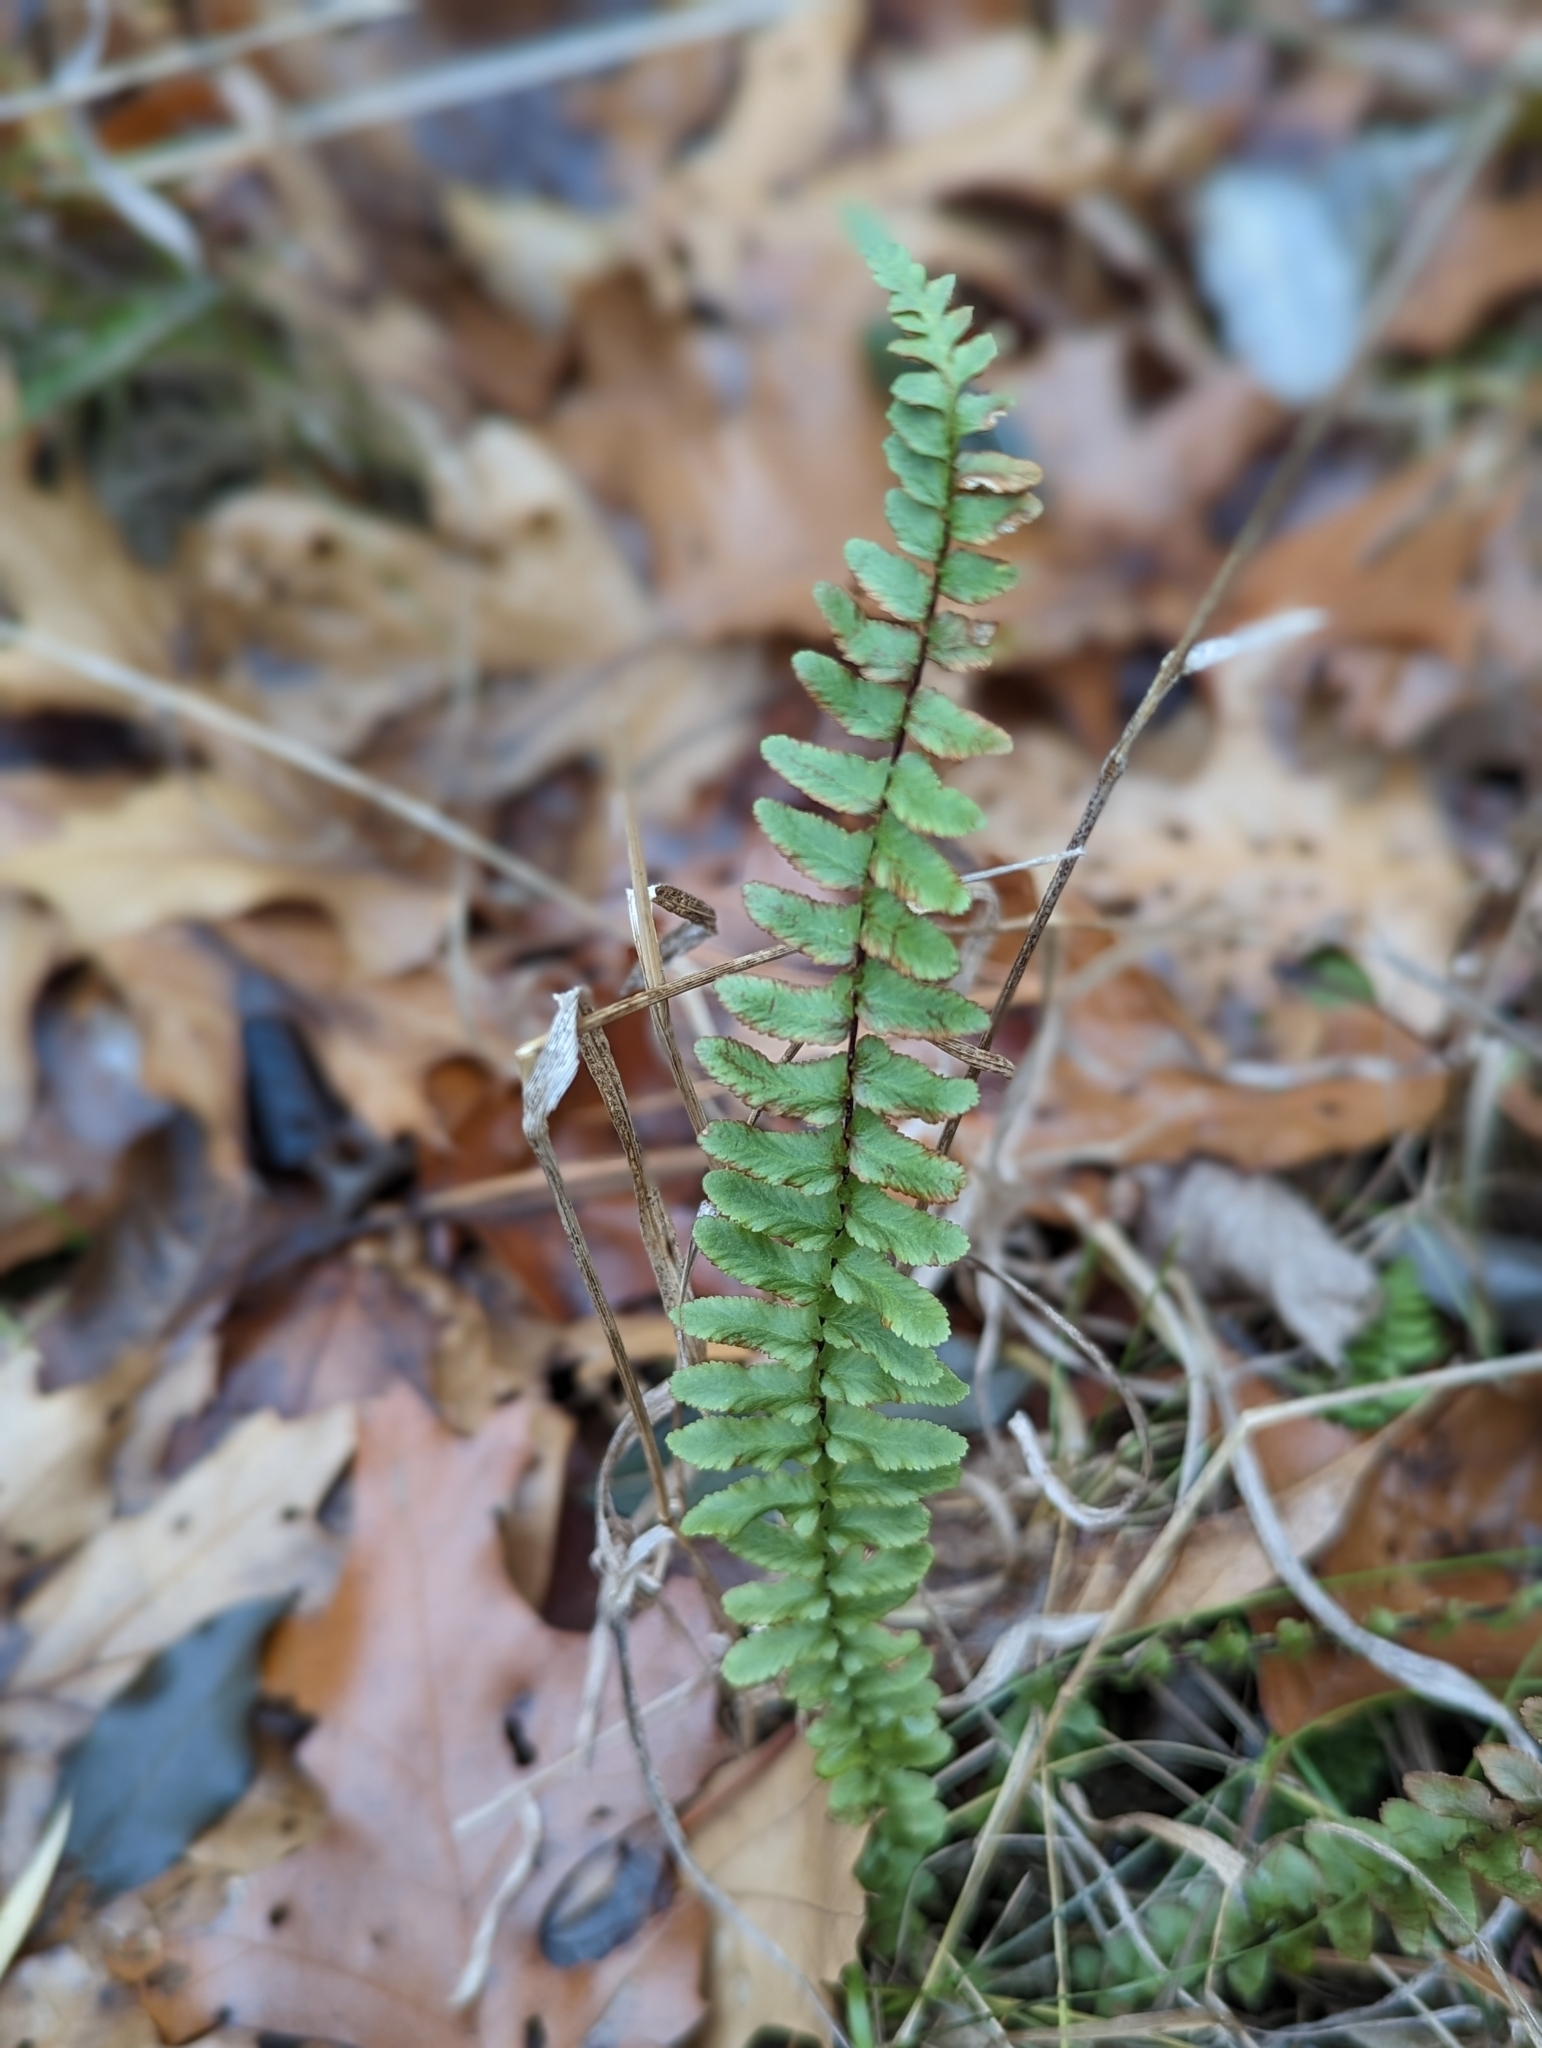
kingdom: Plantae
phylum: Tracheophyta
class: Polypodiopsida
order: Polypodiales
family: Aspleniaceae
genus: Asplenium
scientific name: Asplenium platyneuron
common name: Ebony spleenwort
